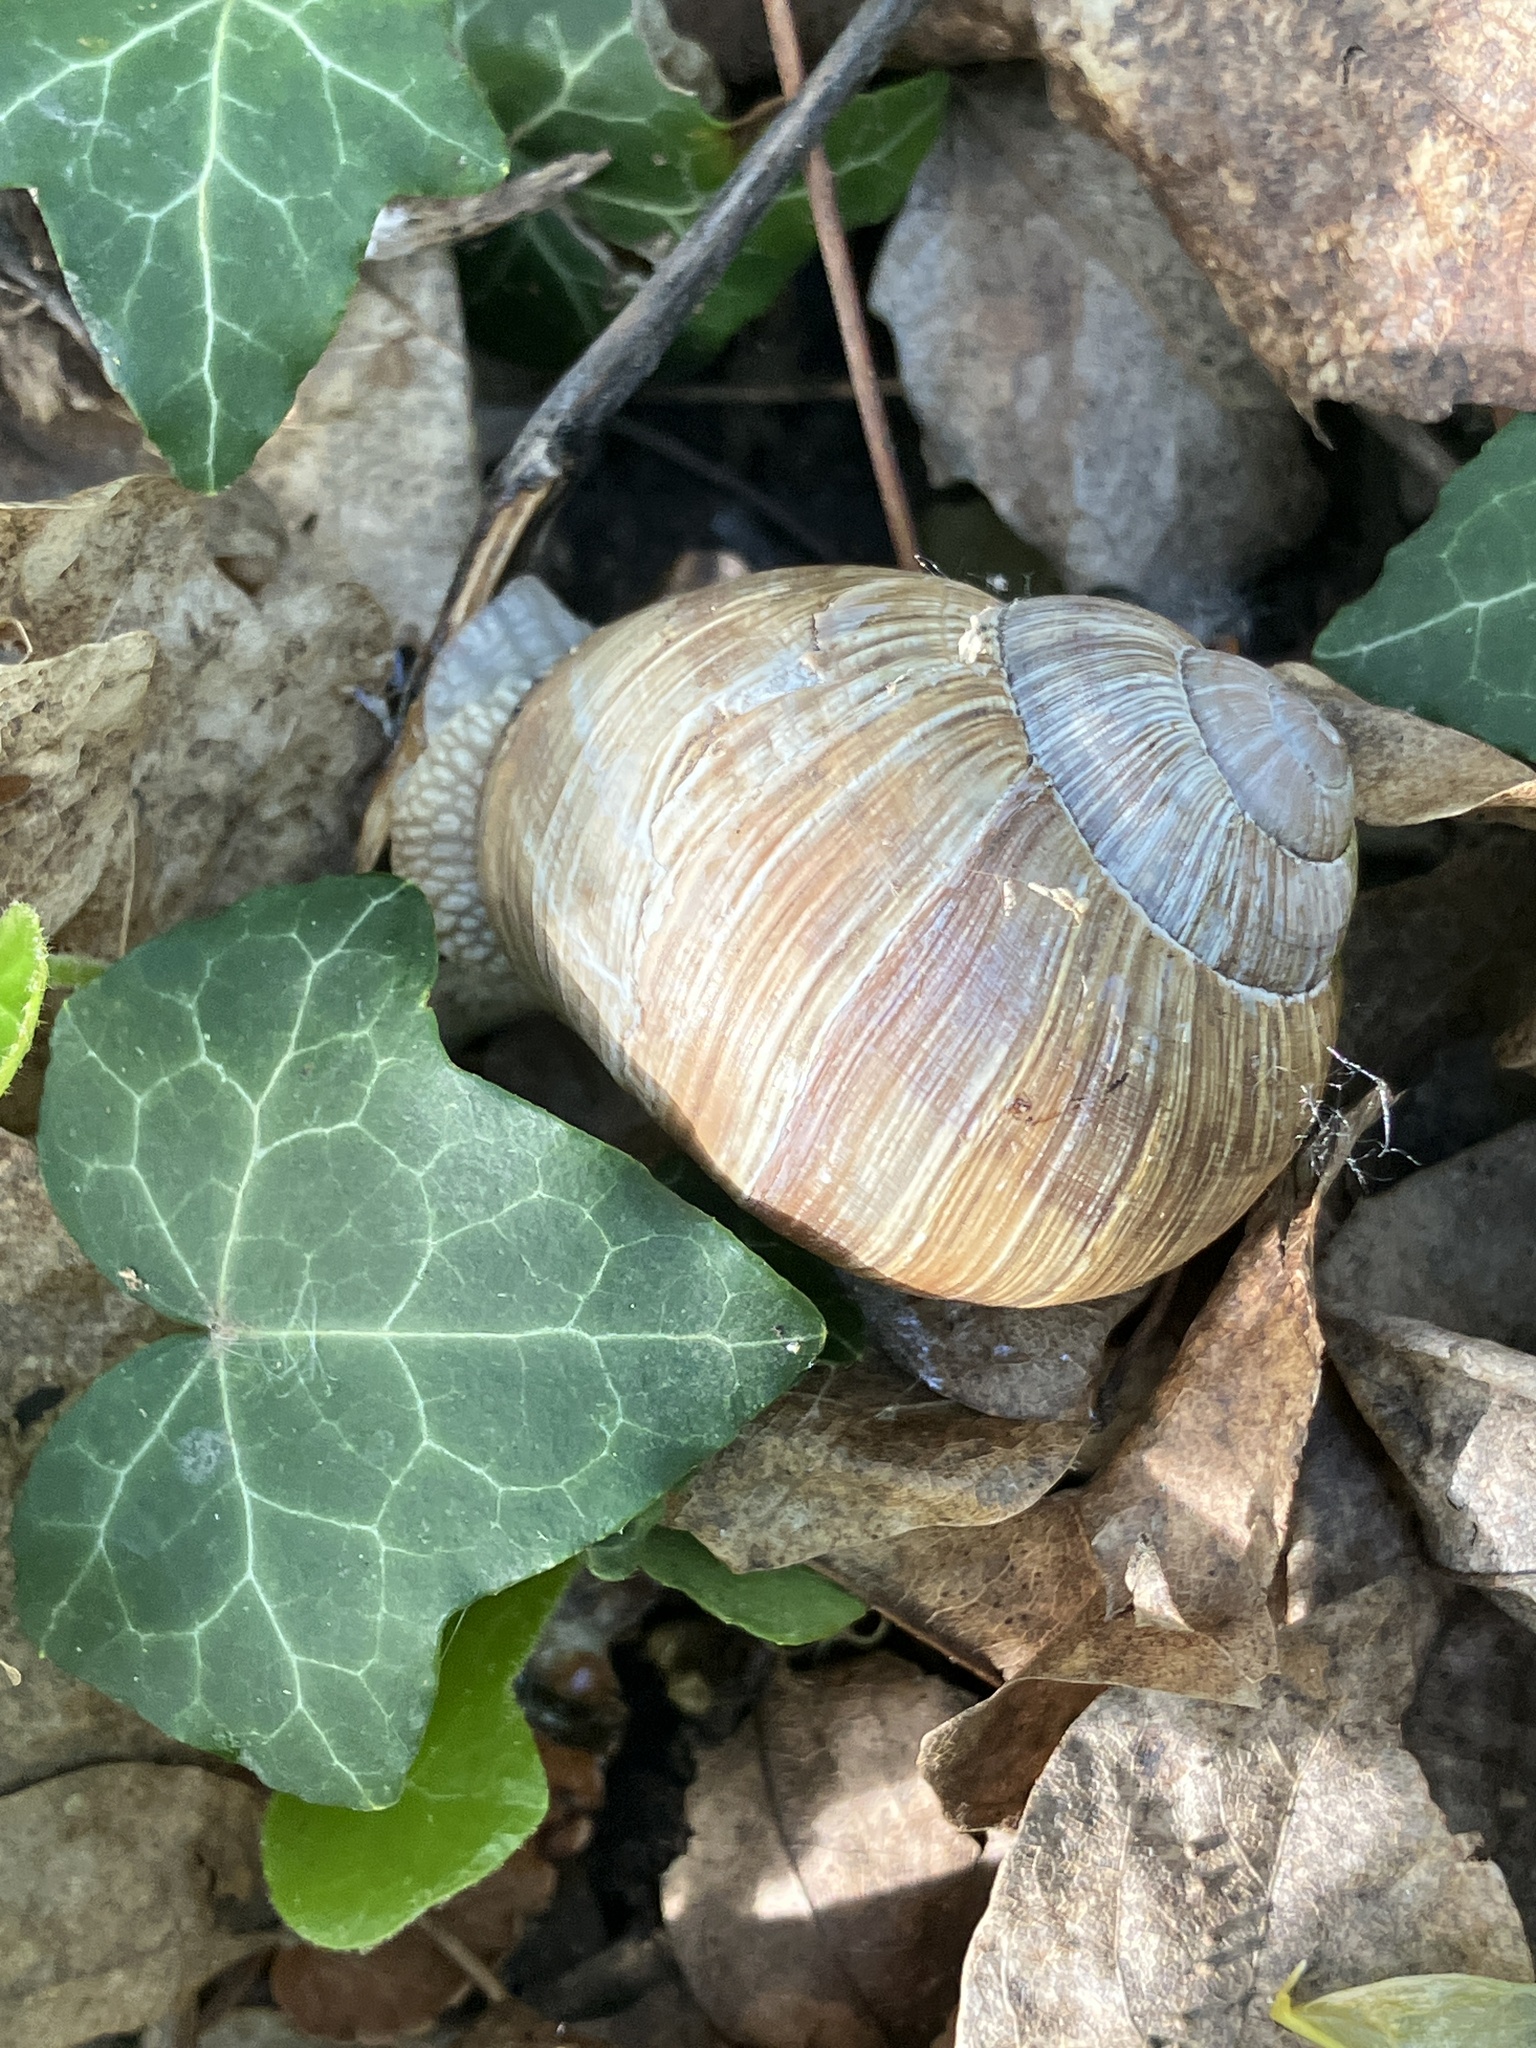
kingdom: Animalia
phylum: Mollusca
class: Gastropoda
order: Stylommatophora
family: Helicidae
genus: Helix
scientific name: Helix pomatia
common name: Roman snail
